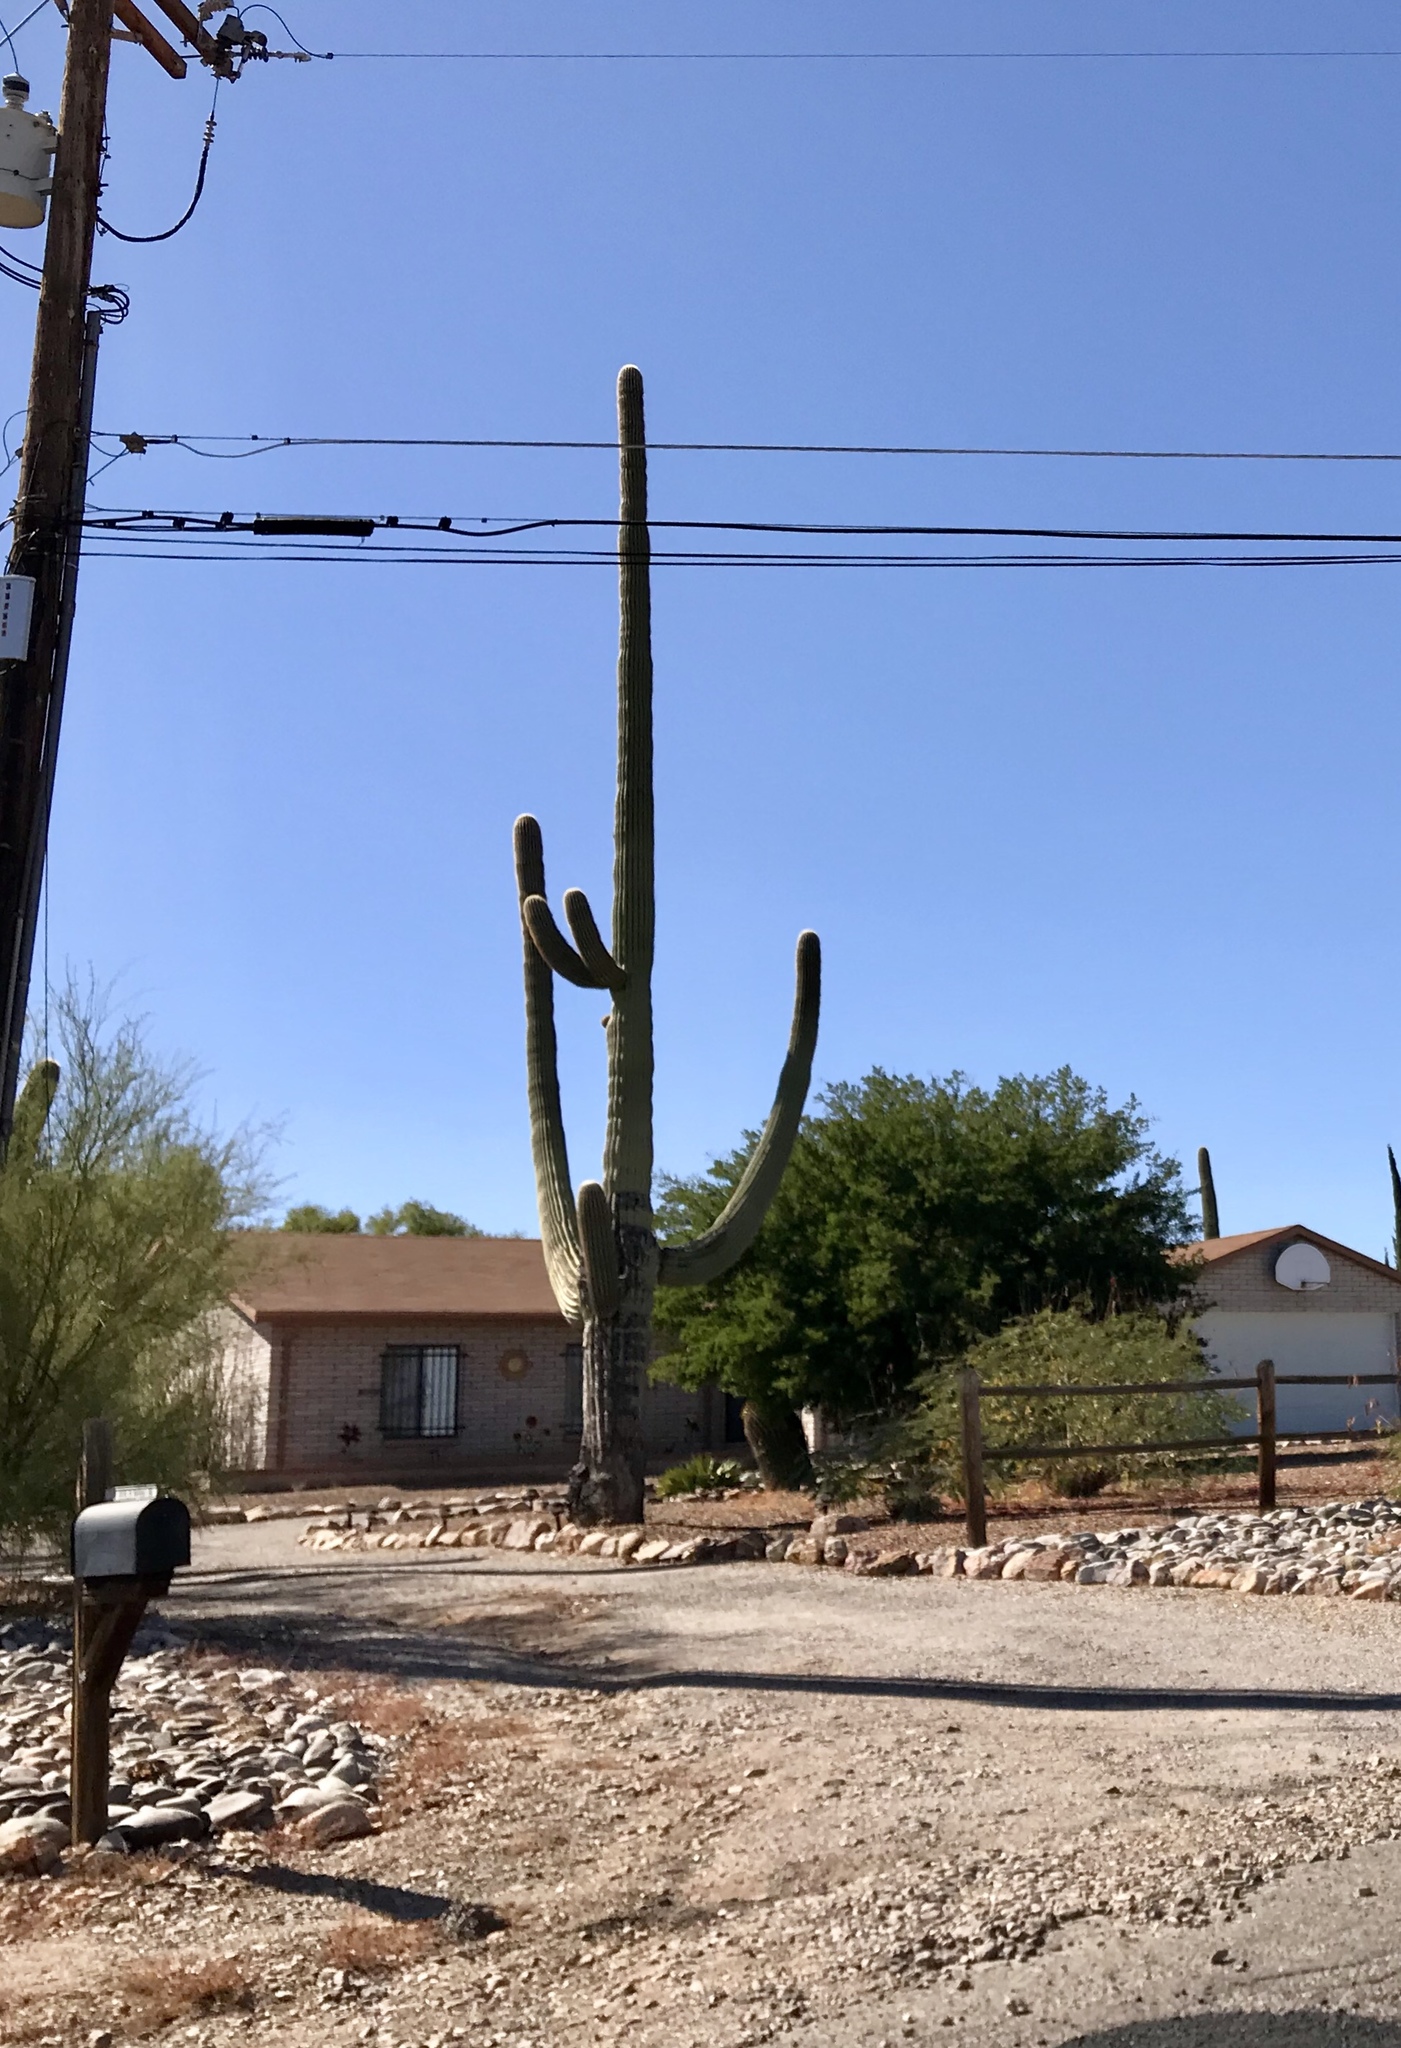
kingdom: Plantae
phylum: Tracheophyta
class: Magnoliopsida
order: Caryophyllales
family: Cactaceae
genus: Carnegiea
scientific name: Carnegiea gigantea
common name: Saguaro
